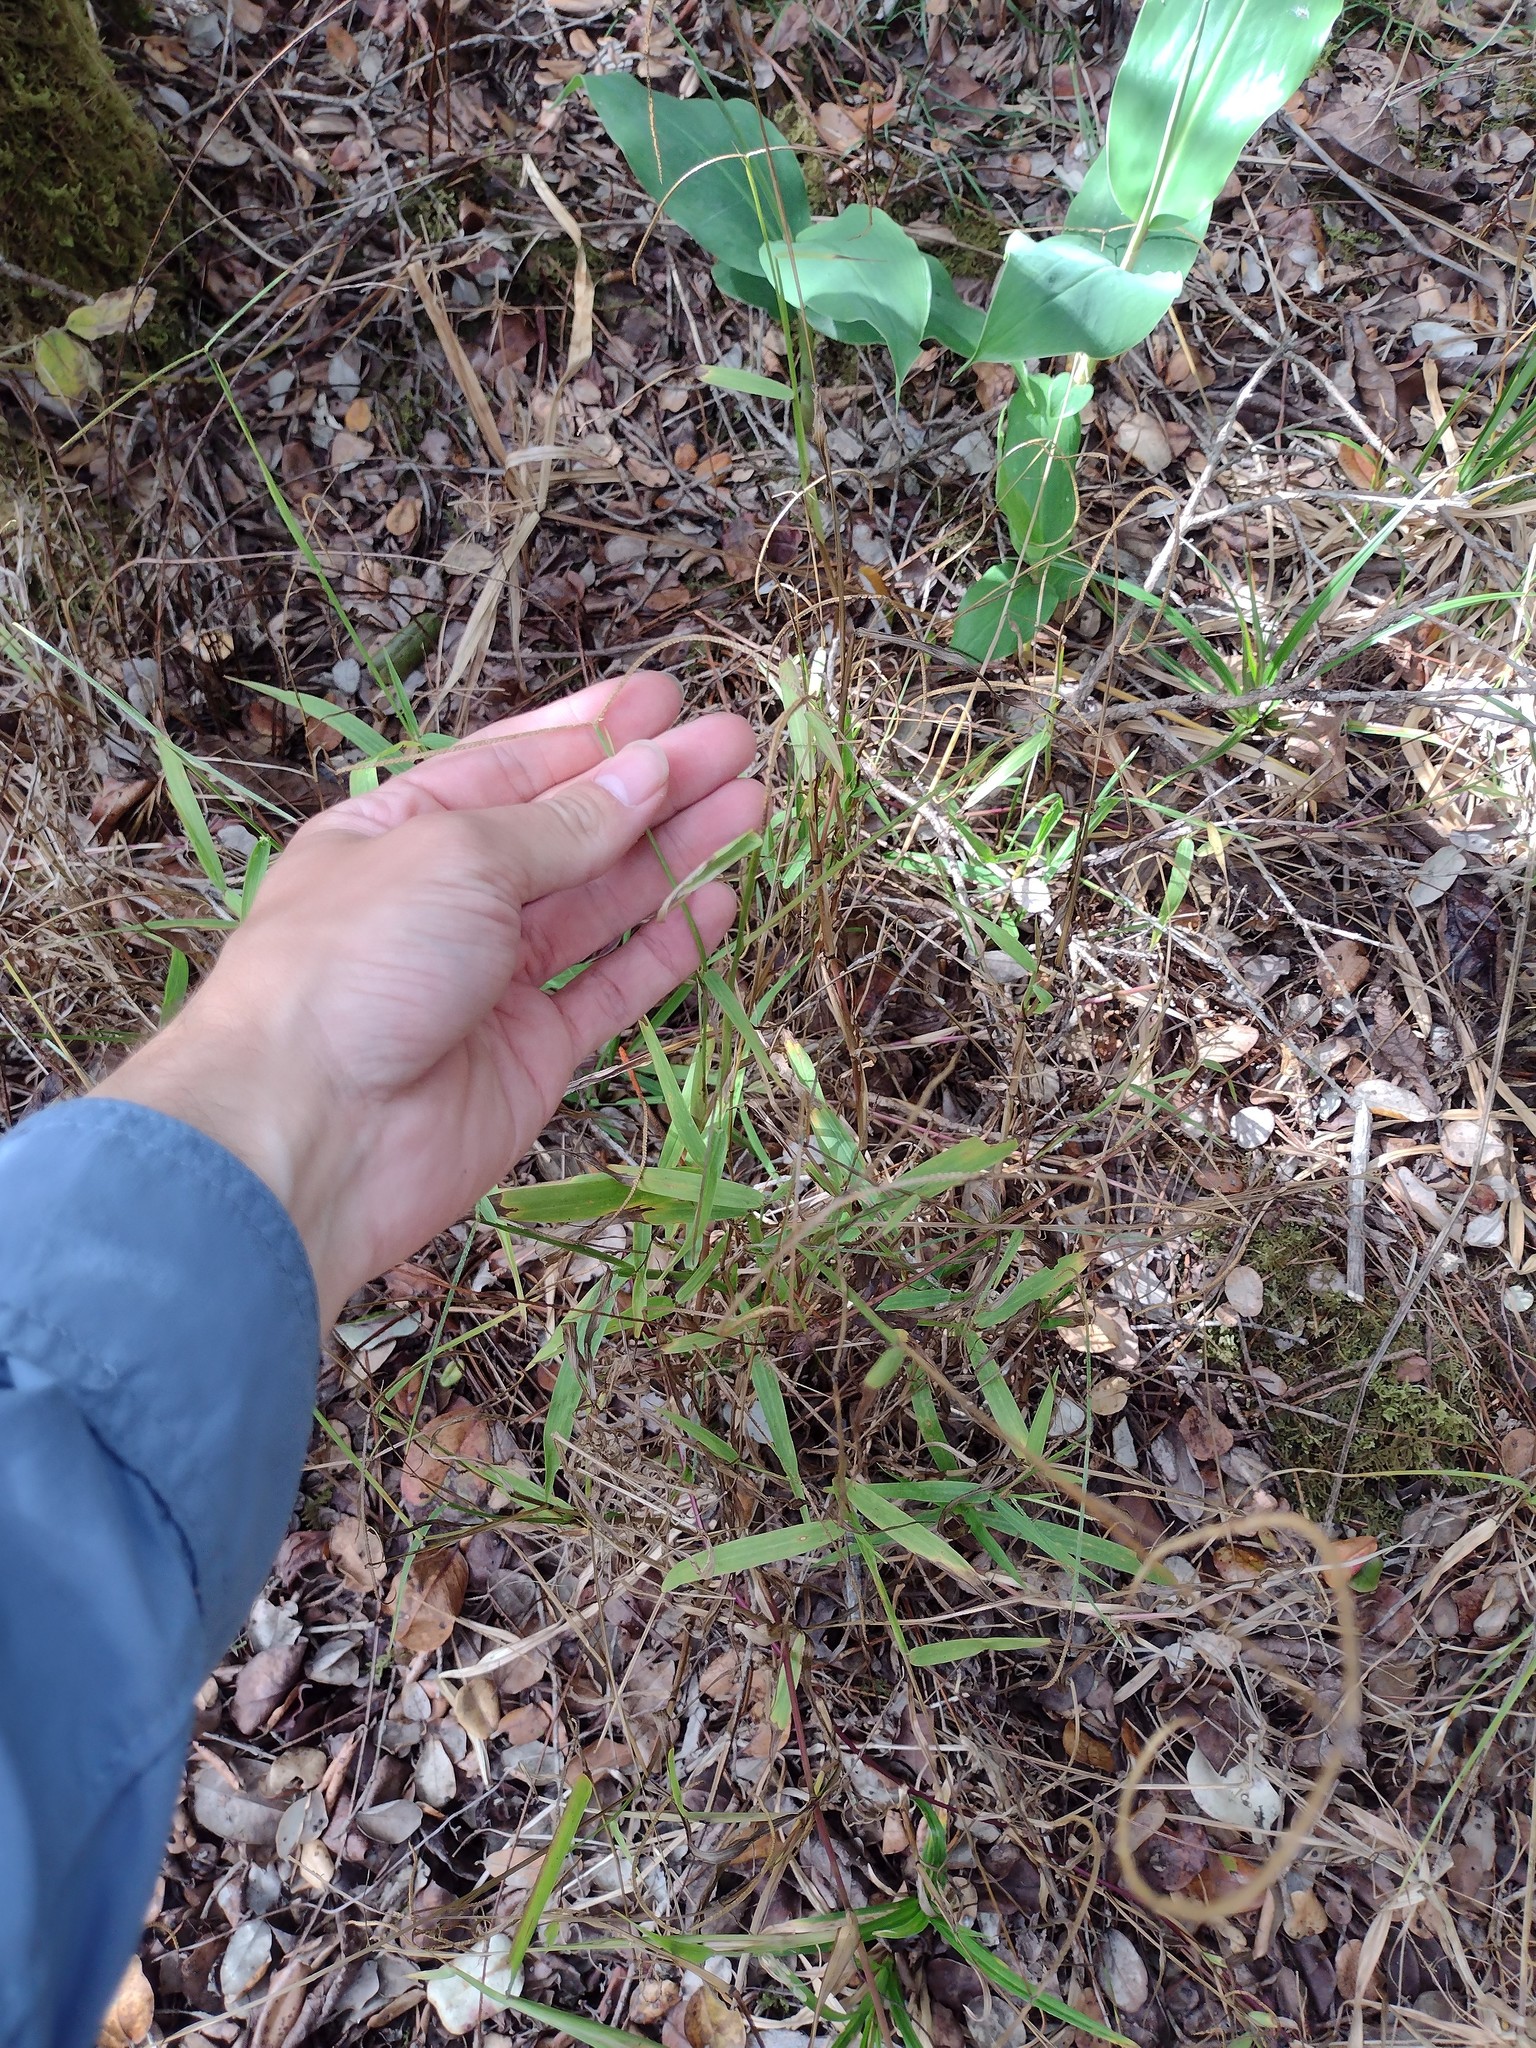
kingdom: Plantae
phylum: Tracheophyta
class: Liliopsida
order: Poales
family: Poaceae
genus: Paspalum
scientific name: Paspalum conjugatum
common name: Hilograss
